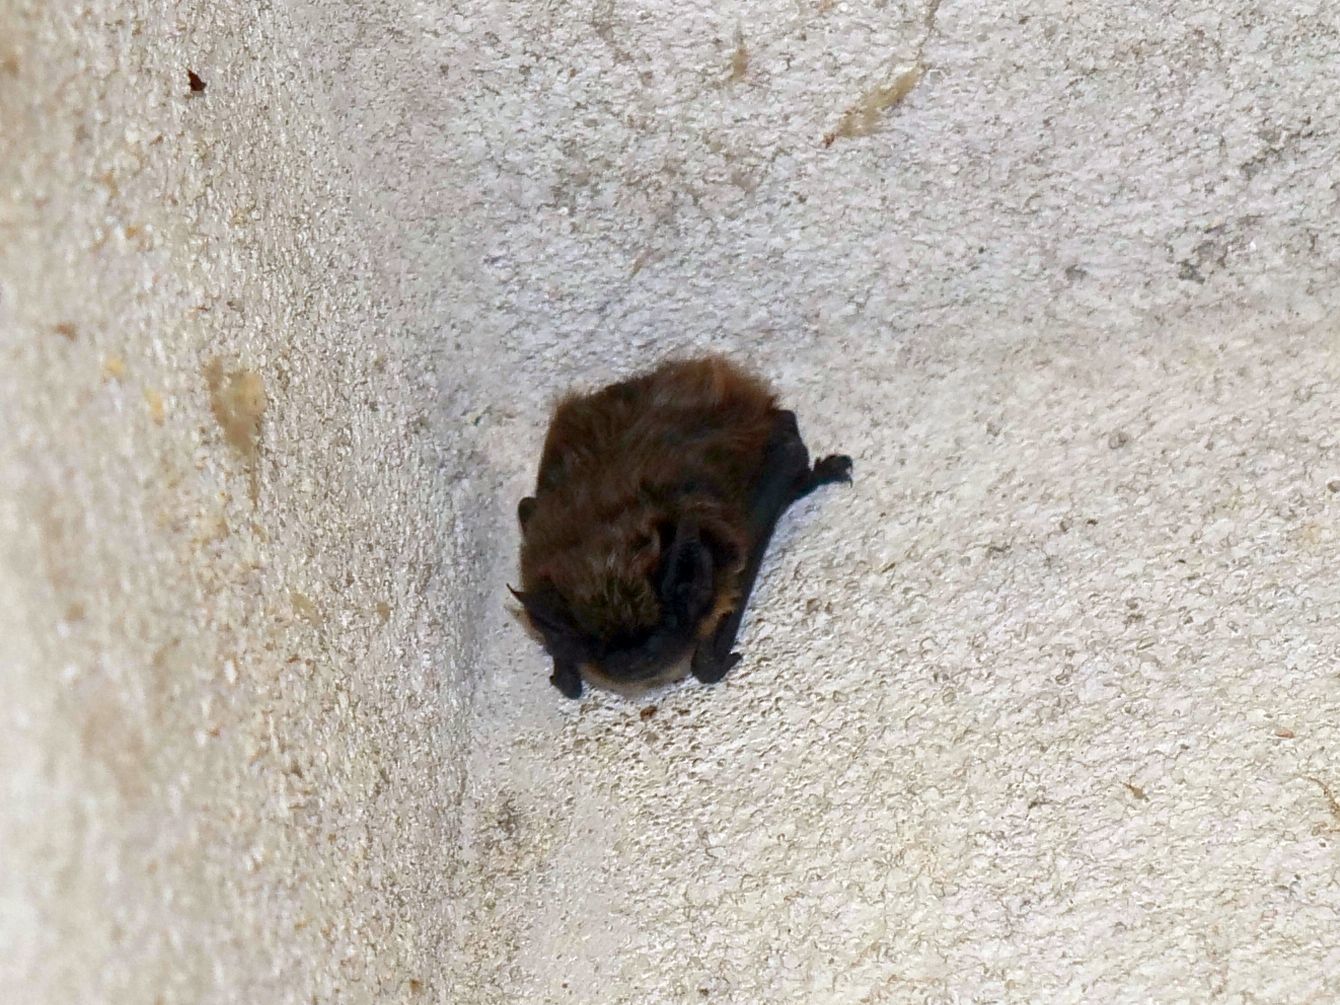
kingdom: Animalia
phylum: Chordata
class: Mammalia
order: Chiroptera
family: Vespertilionidae
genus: Hypsugo
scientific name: Hypsugo savii
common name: Savi's pipistrelle
